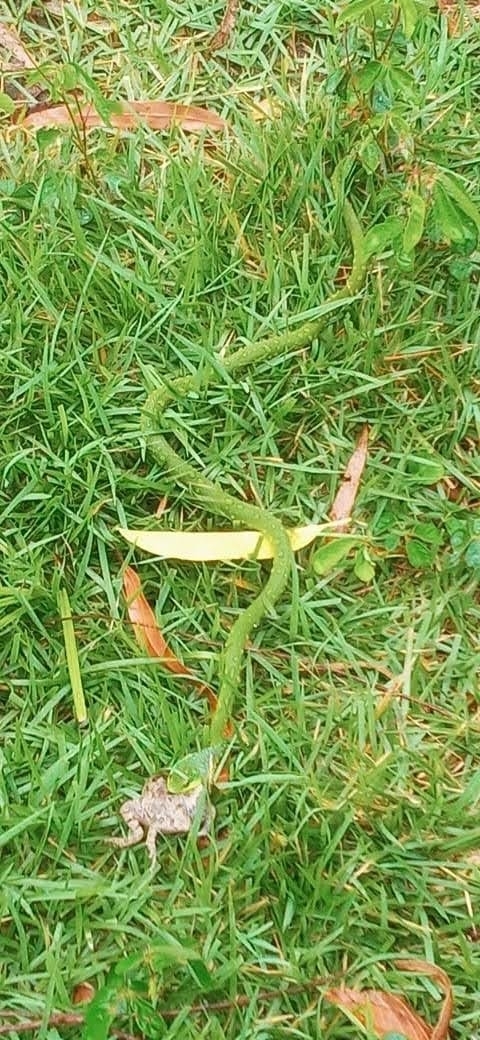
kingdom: Animalia
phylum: Chordata
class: Squamata
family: Colubridae
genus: Philodryas
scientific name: Philodryas olfersii
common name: Lichtenstein's green racer
